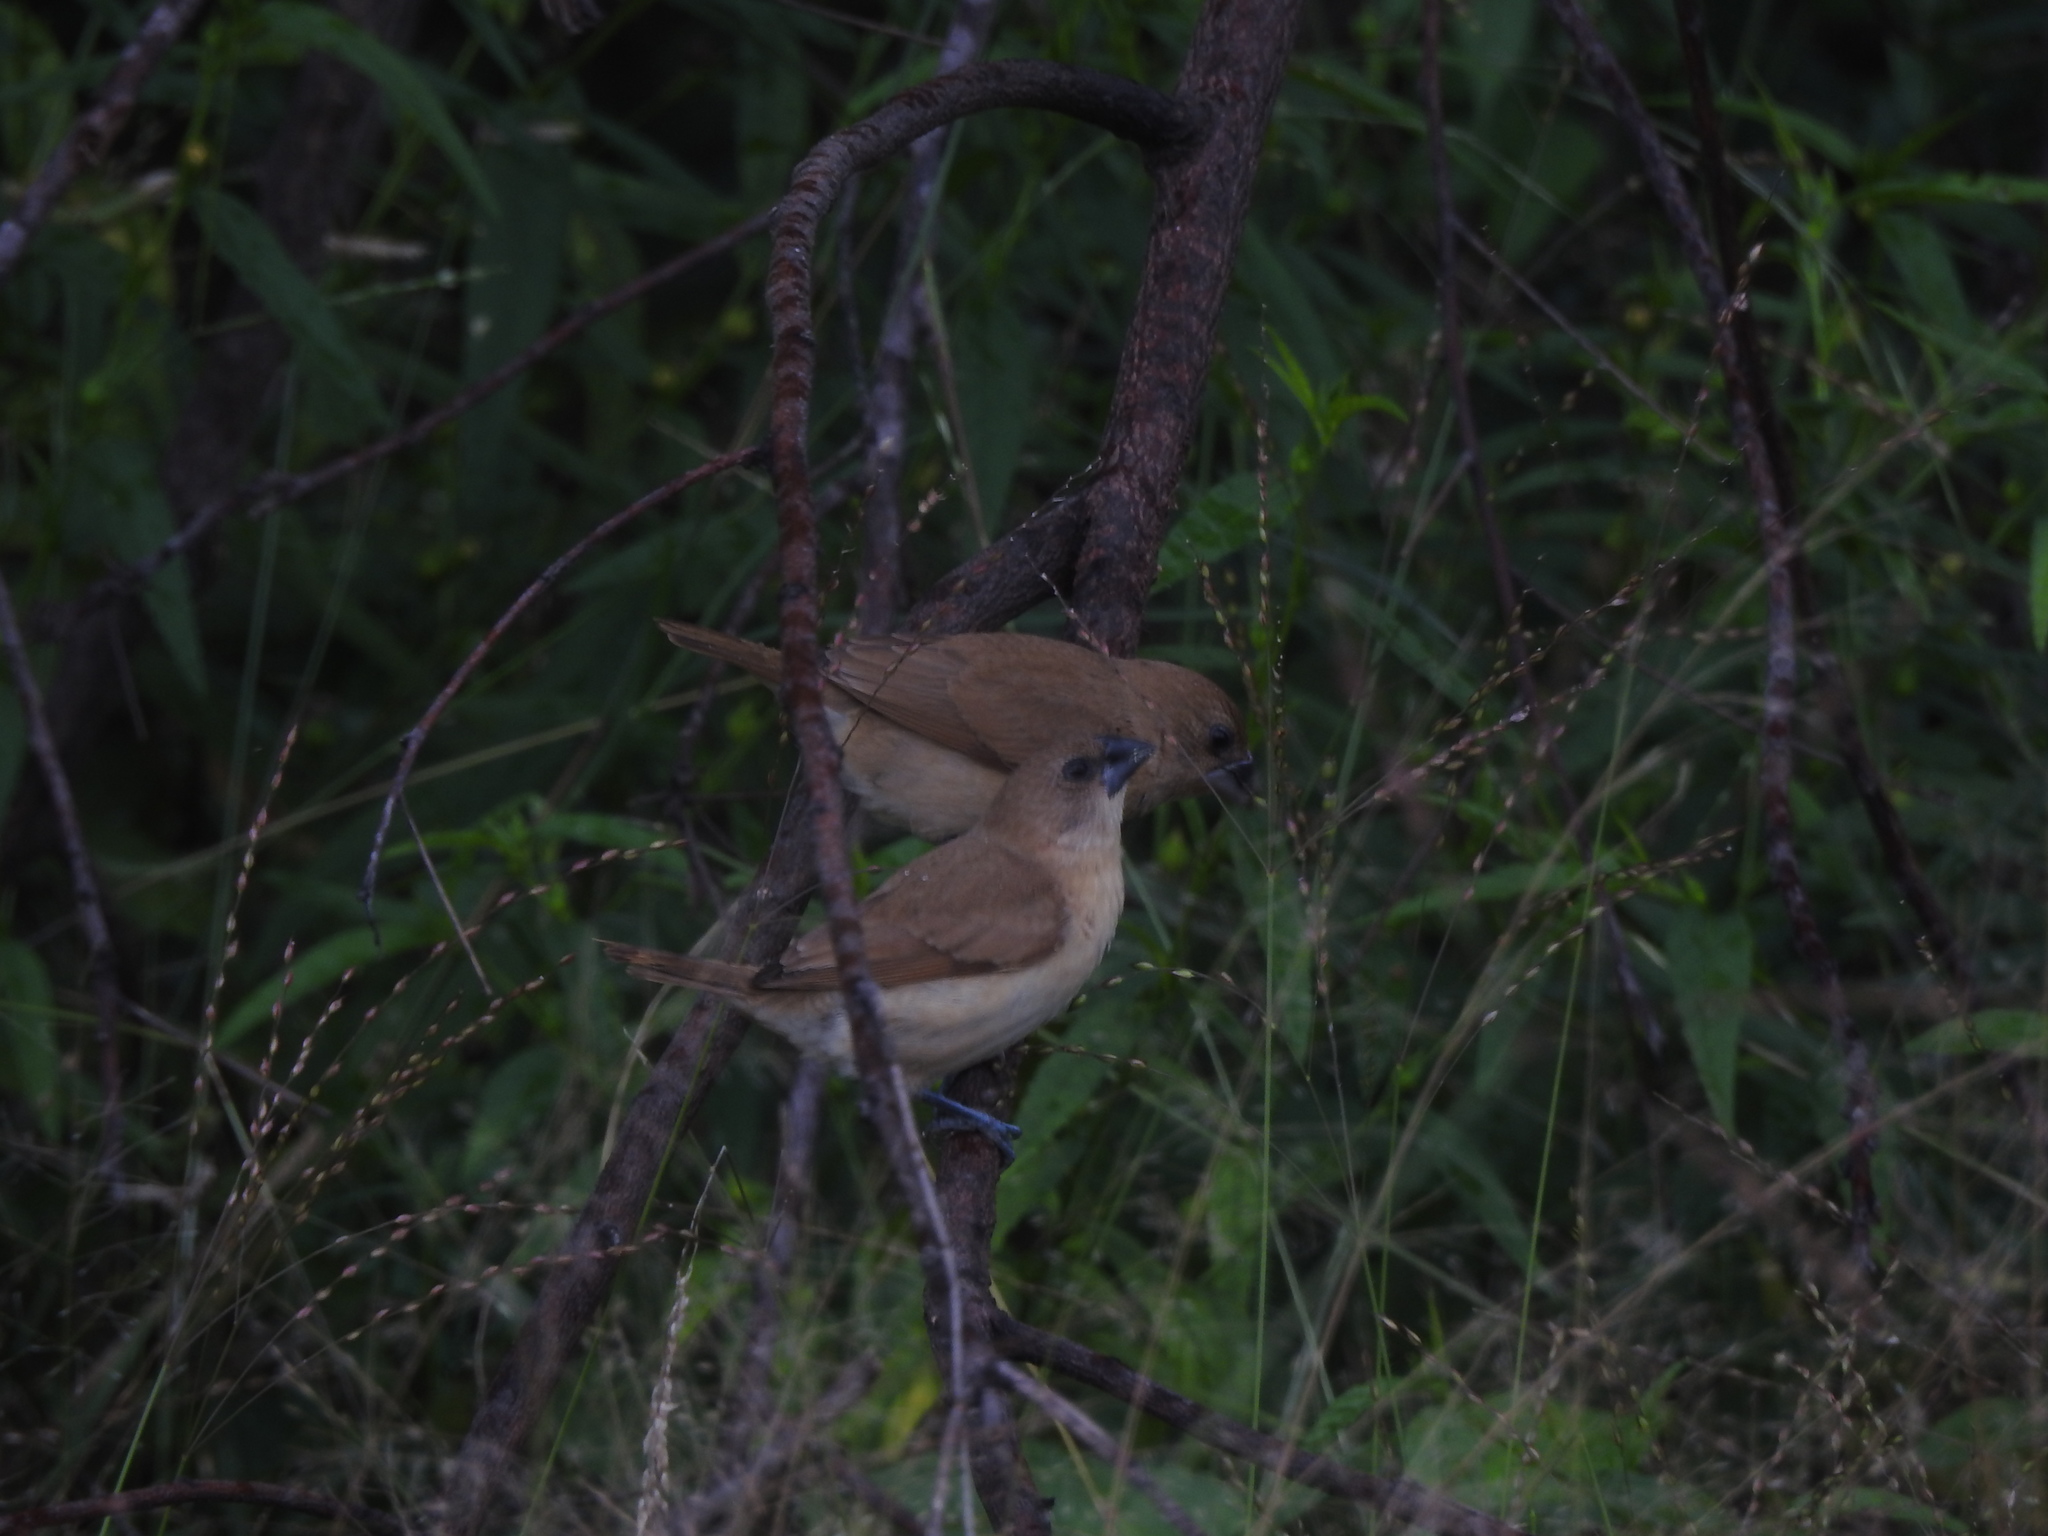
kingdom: Animalia
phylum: Chordata
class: Aves
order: Passeriformes
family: Estrildidae
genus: Euodice
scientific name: Euodice malabarica
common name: Indian silverbill
